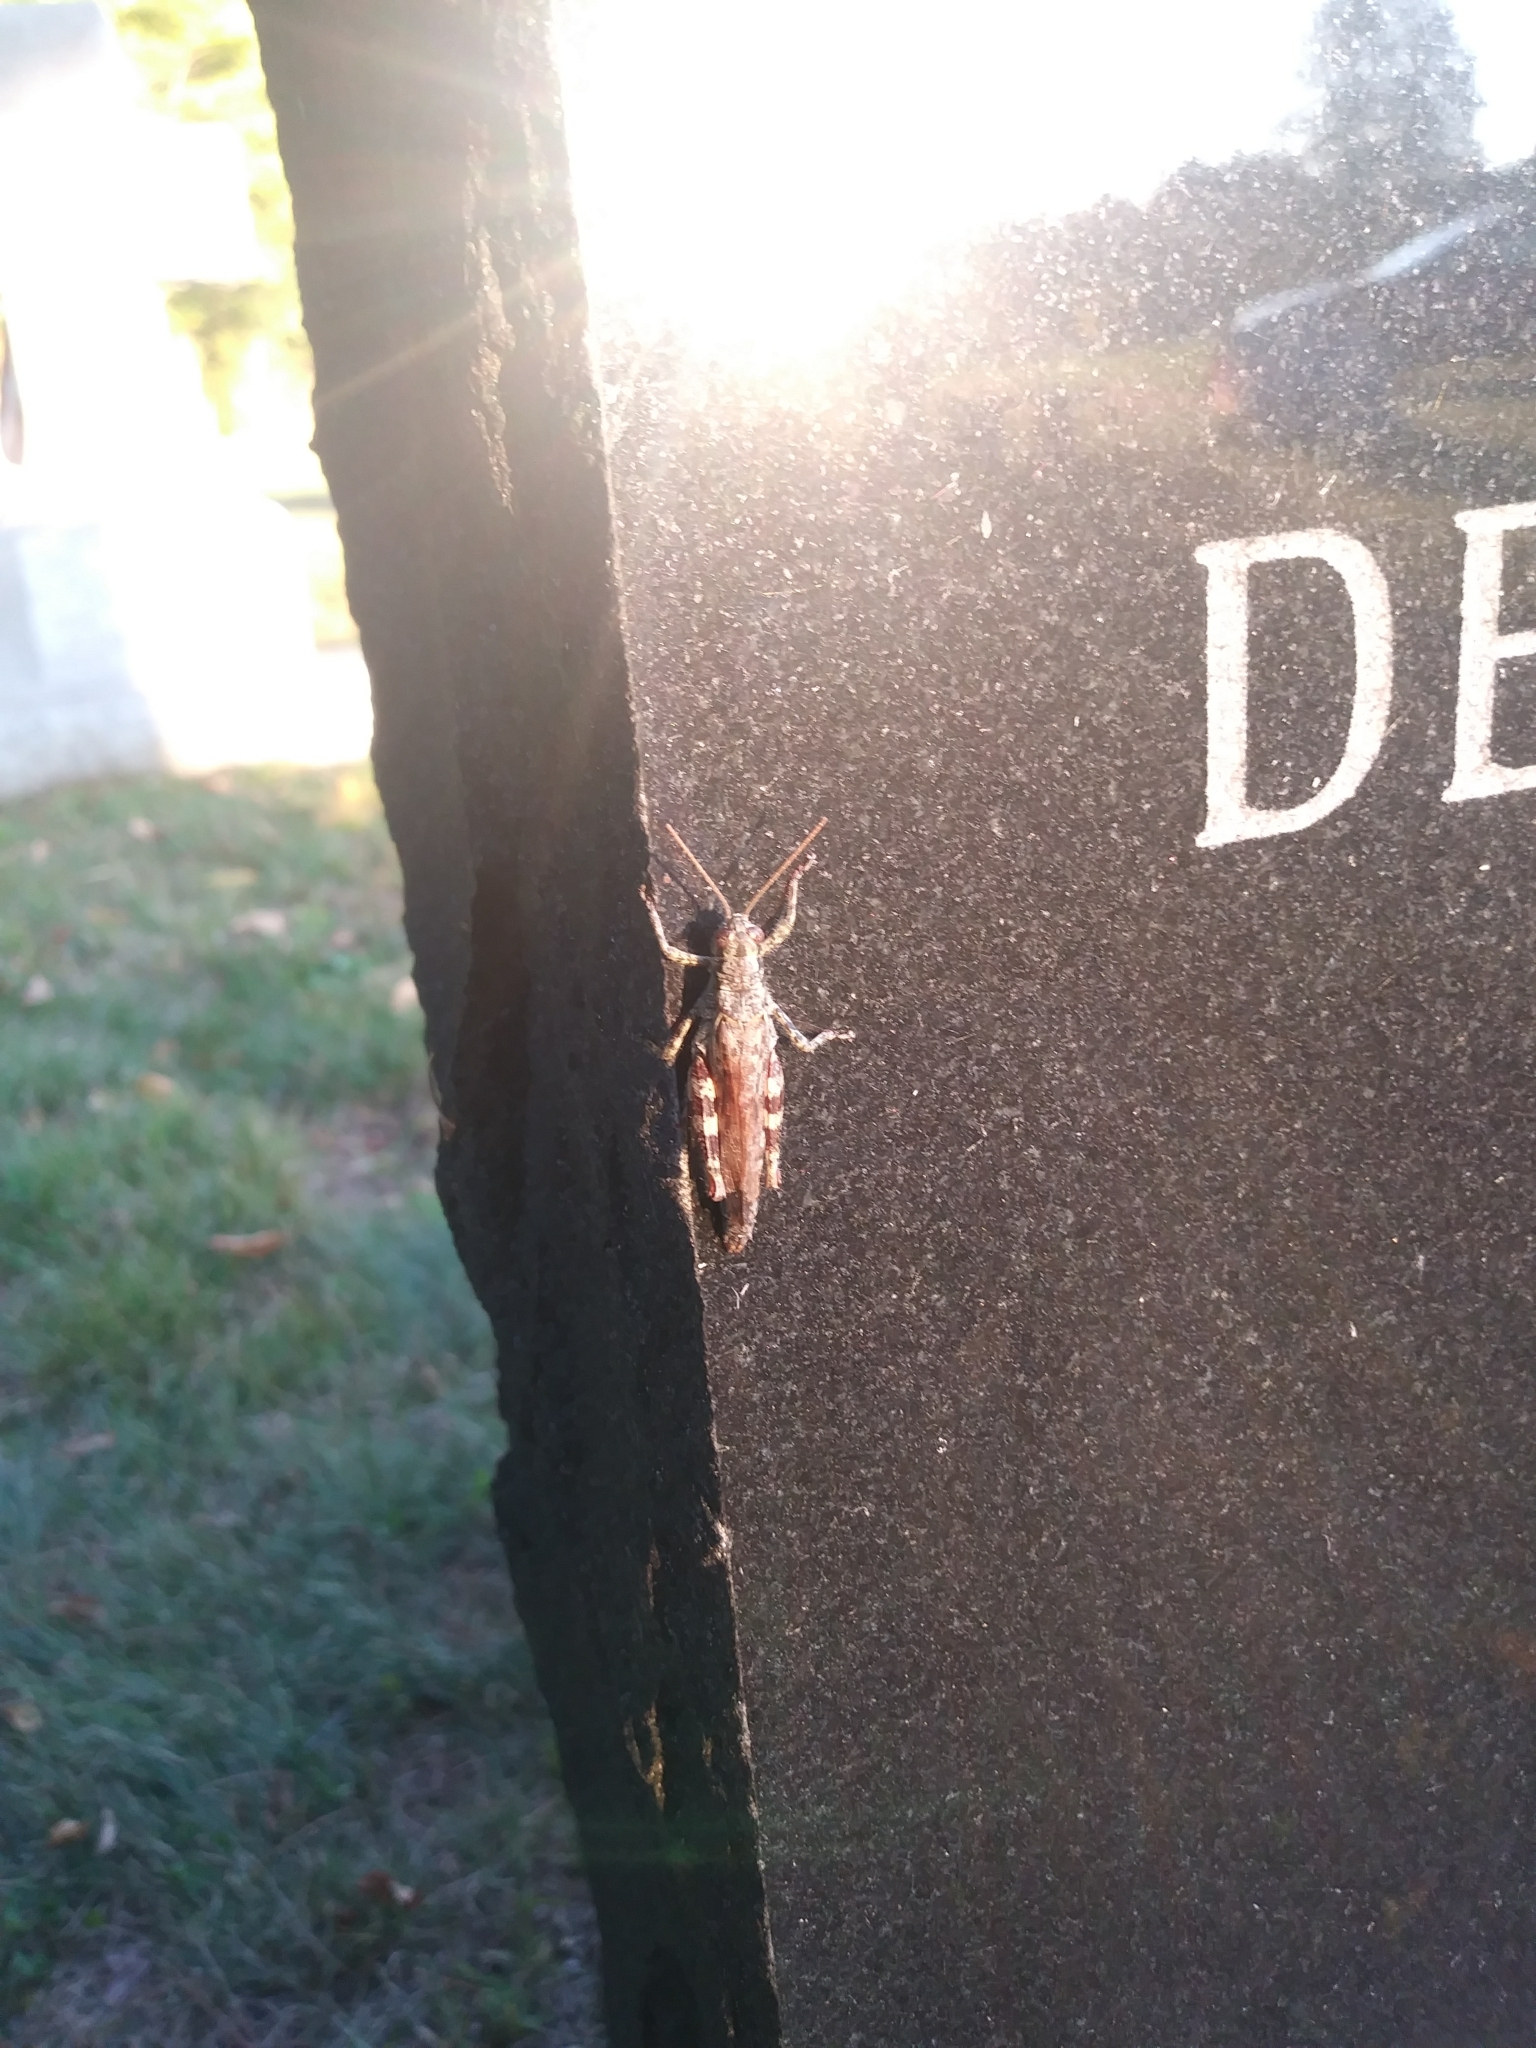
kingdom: Animalia
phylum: Arthropoda
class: Insecta
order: Orthoptera
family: Acrididae
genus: Melanoplus
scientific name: Melanoplus punctulatus
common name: Pine-tree spur-throat grasshopper
